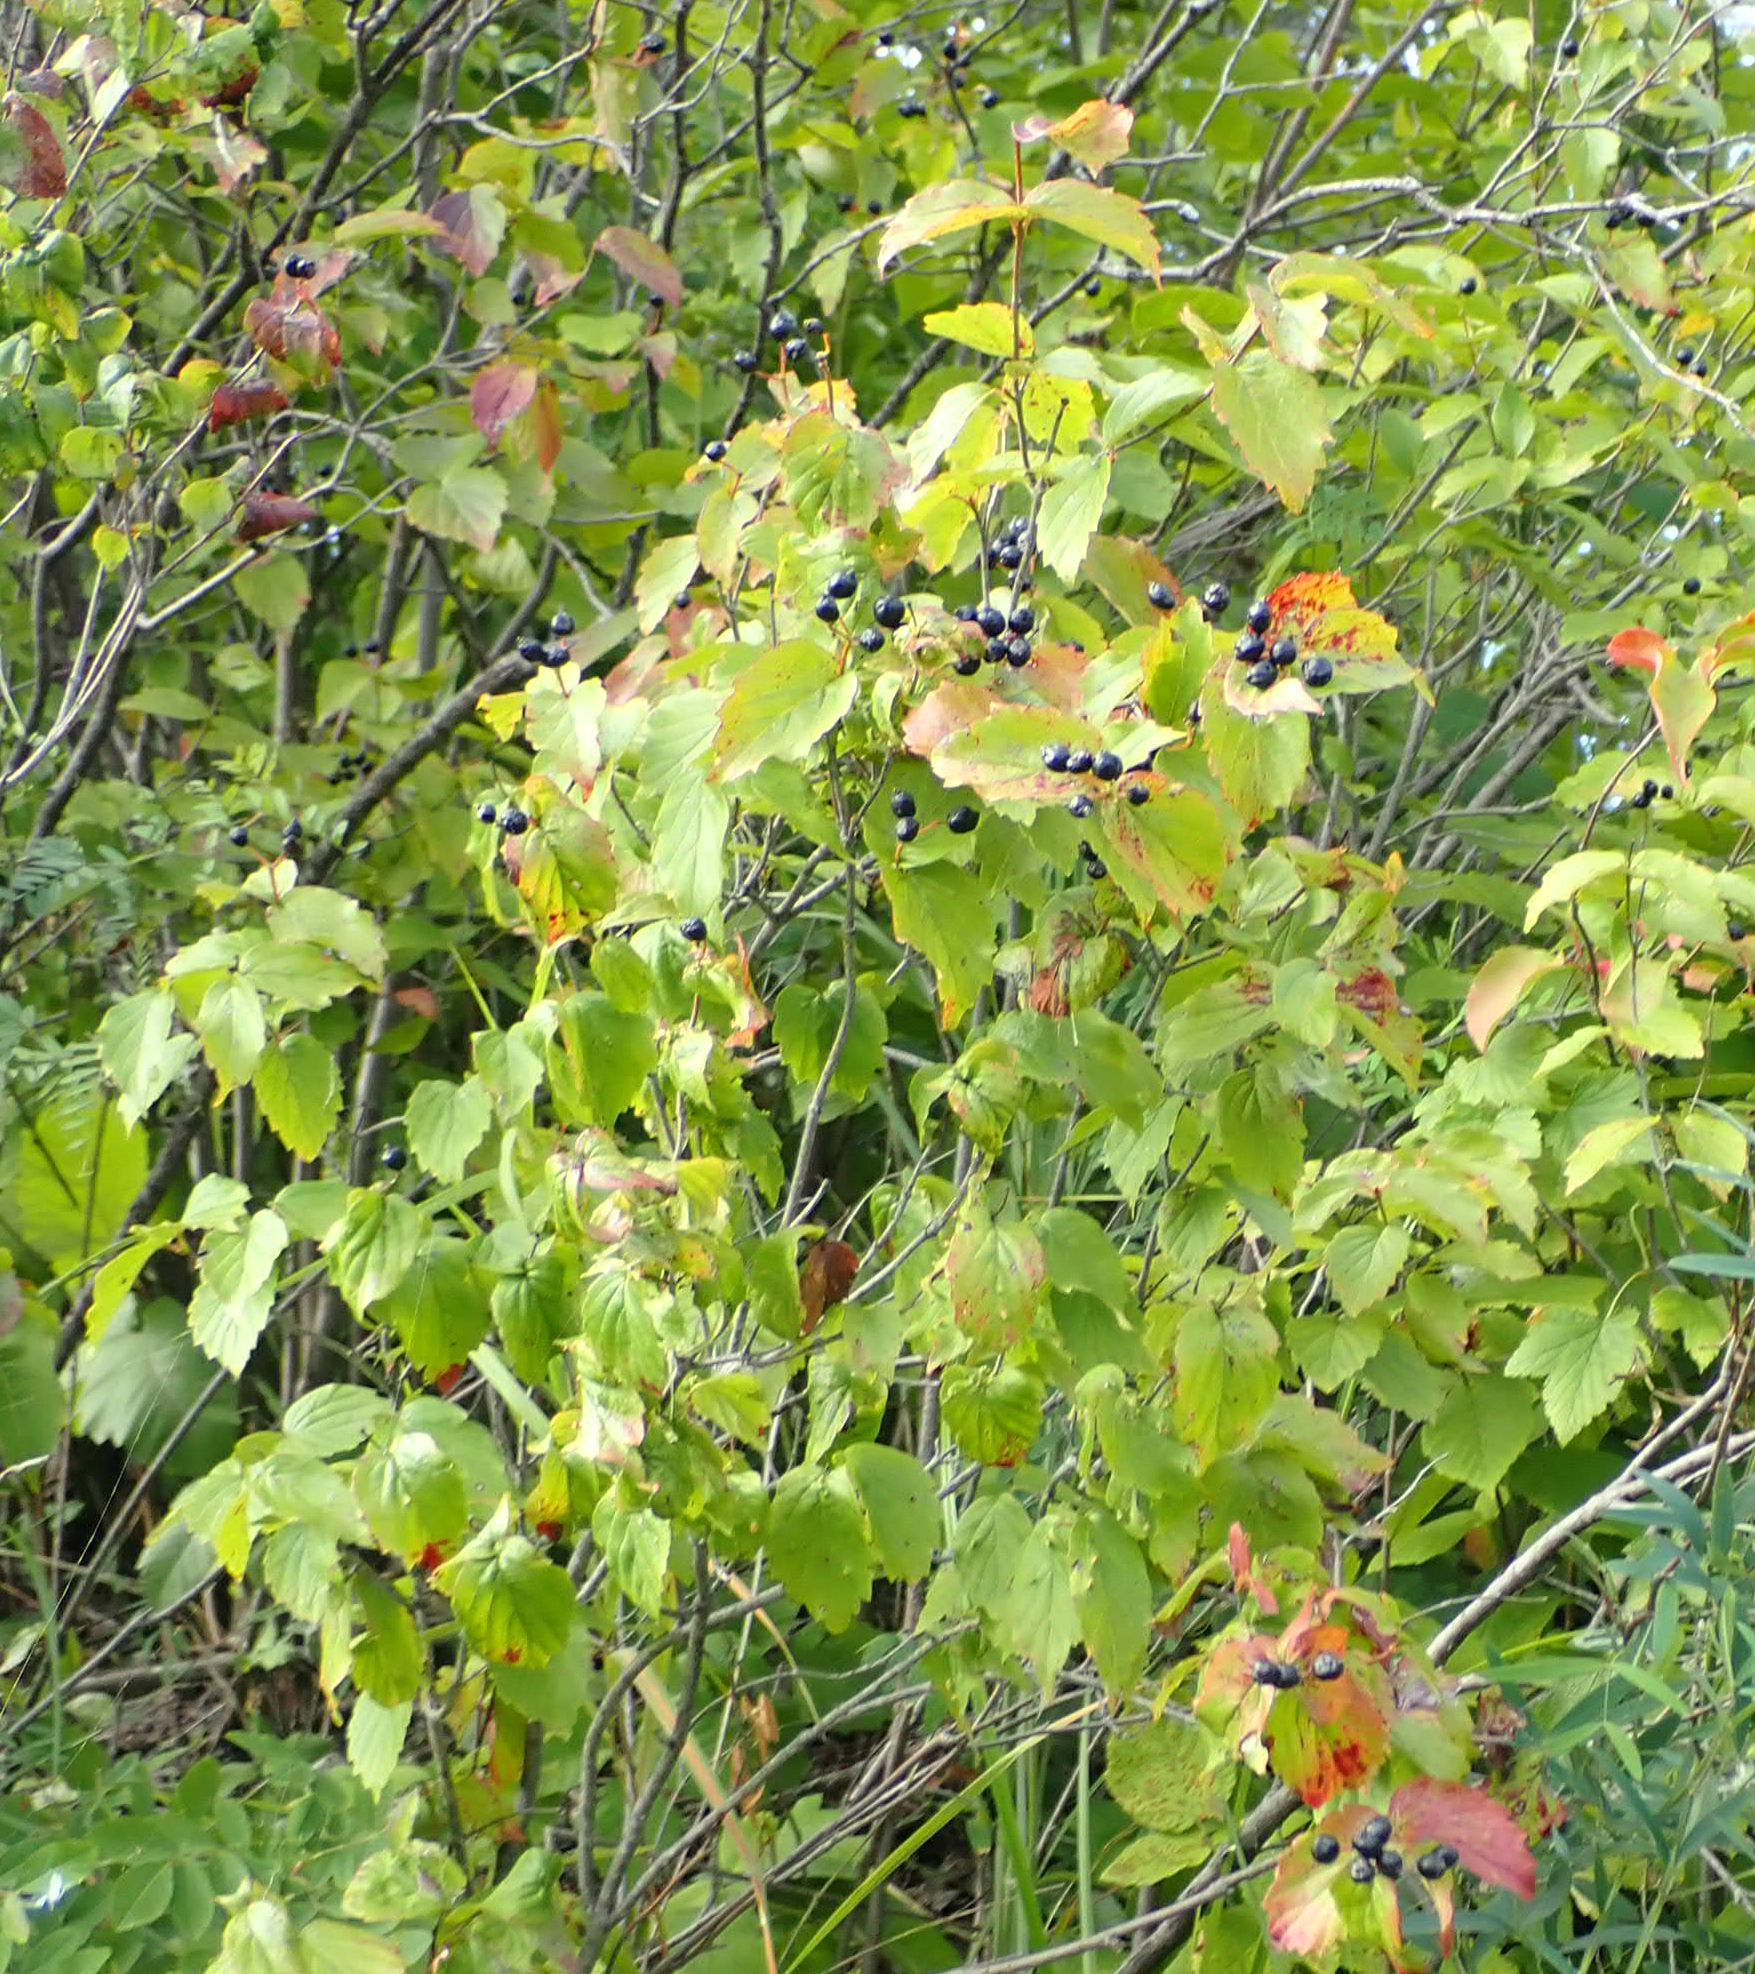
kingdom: Plantae
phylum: Tracheophyta
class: Magnoliopsida
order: Dipsacales
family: Viburnaceae
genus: Viburnum
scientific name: Viburnum rafinesqueanum
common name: Downy arrow-wood
